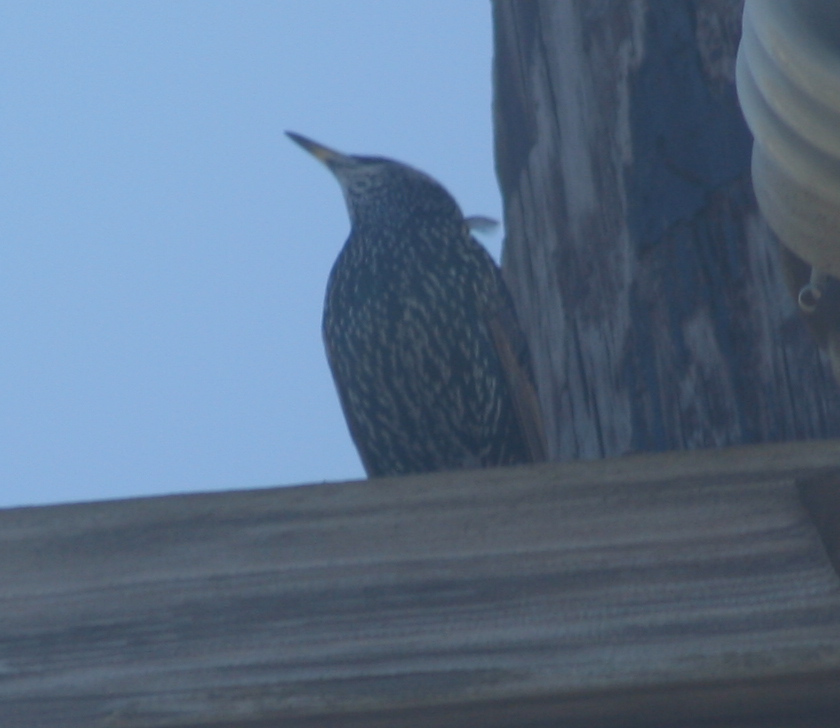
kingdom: Animalia
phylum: Chordata
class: Aves
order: Passeriformes
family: Sturnidae
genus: Sturnus
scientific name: Sturnus vulgaris
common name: Common starling
